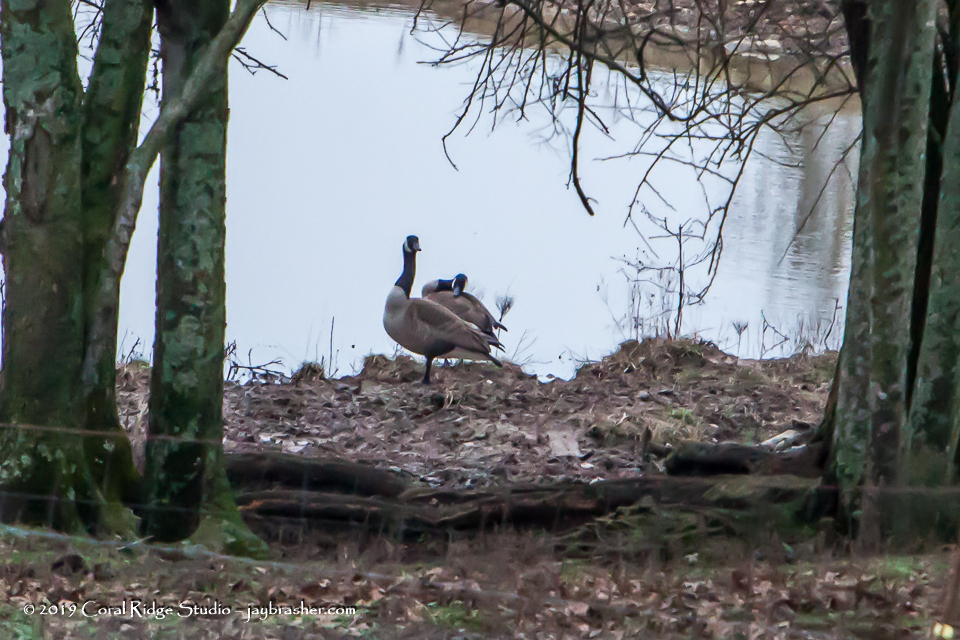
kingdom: Animalia
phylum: Chordata
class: Aves
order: Anseriformes
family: Anatidae
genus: Branta
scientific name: Branta canadensis
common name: Canada goose
